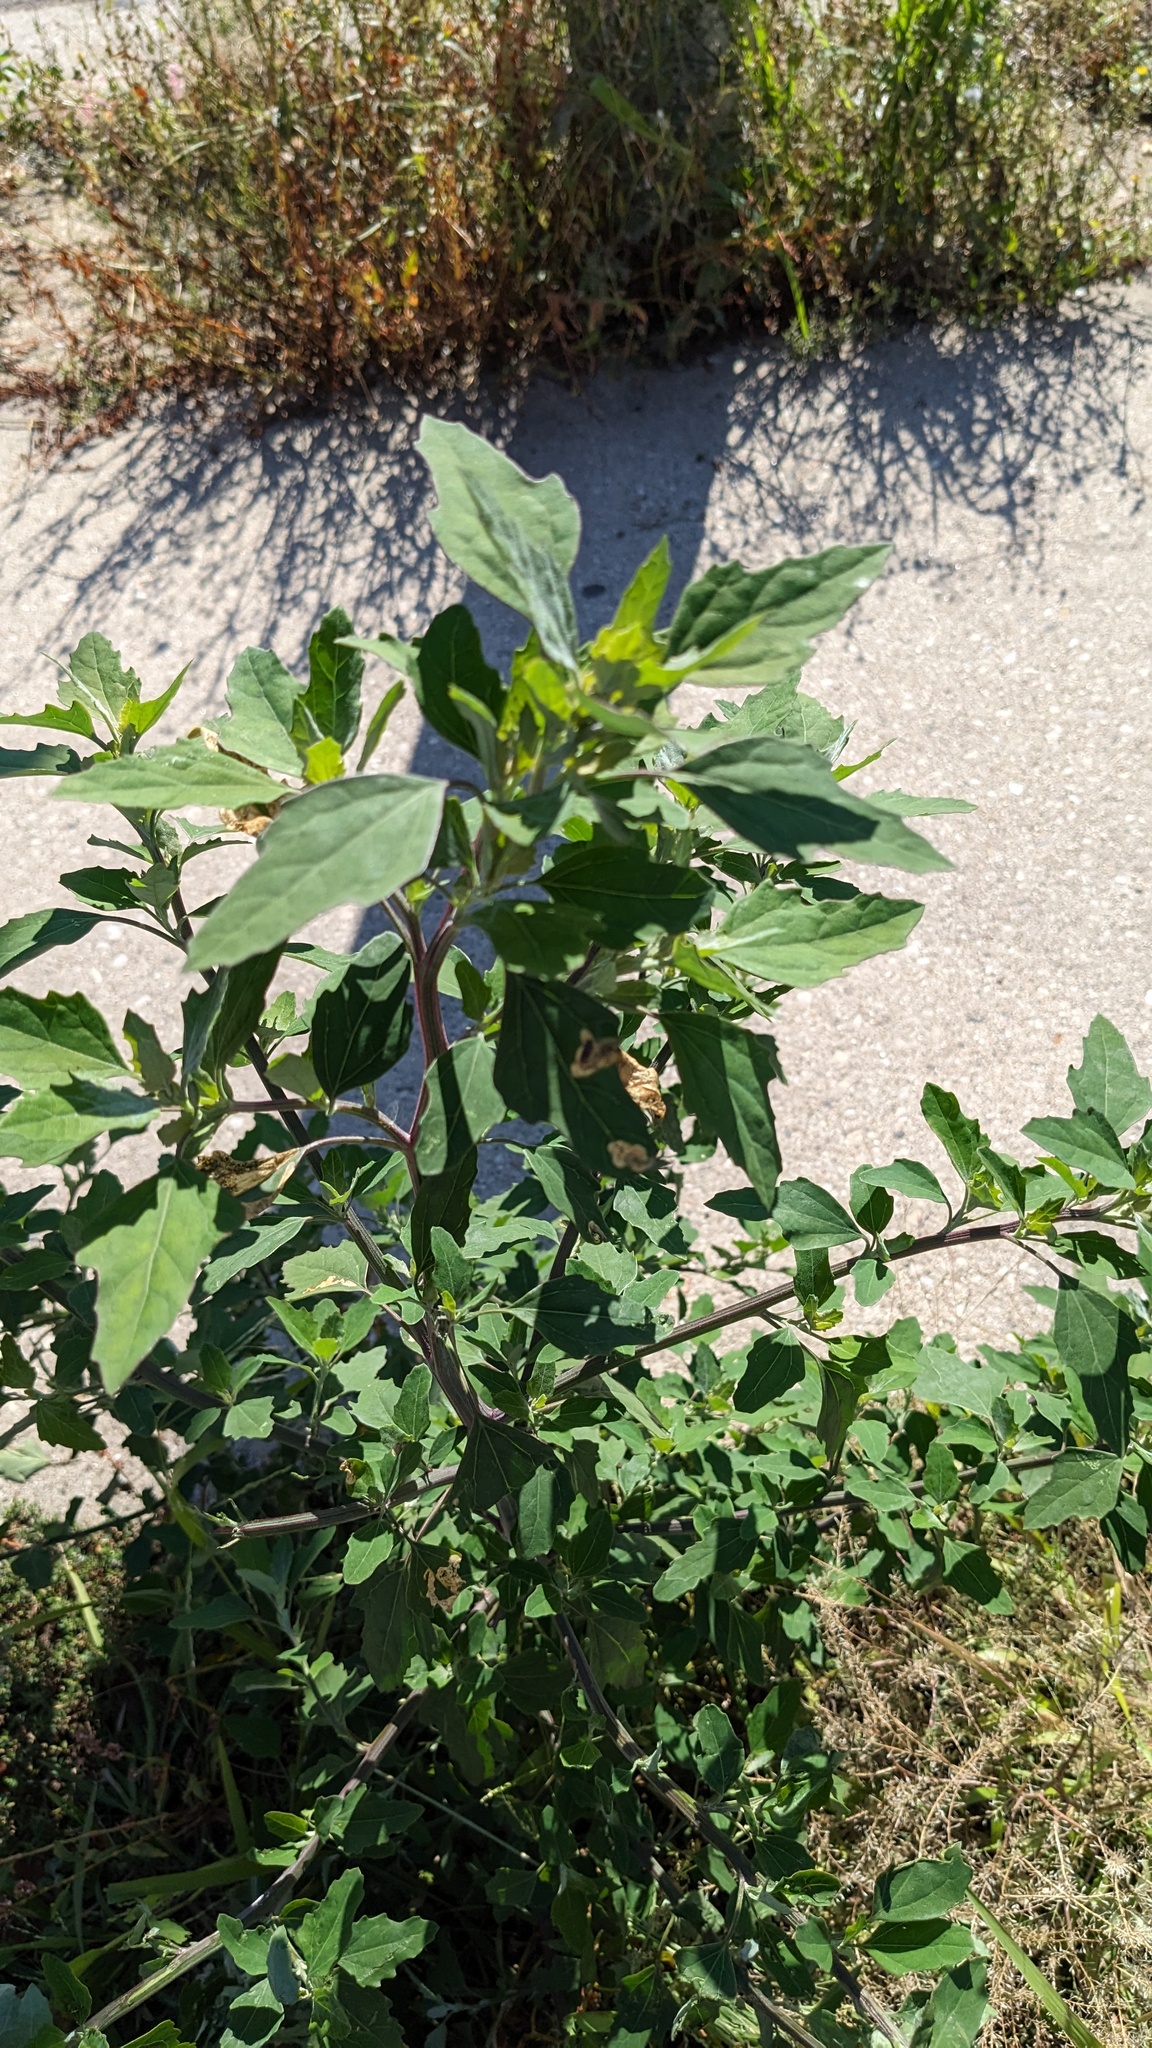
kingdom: Plantae
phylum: Tracheophyta
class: Magnoliopsida
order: Caryophyllales
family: Amaranthaceae
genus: Chenopodium
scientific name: Chenopodium album
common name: Fat-hen
